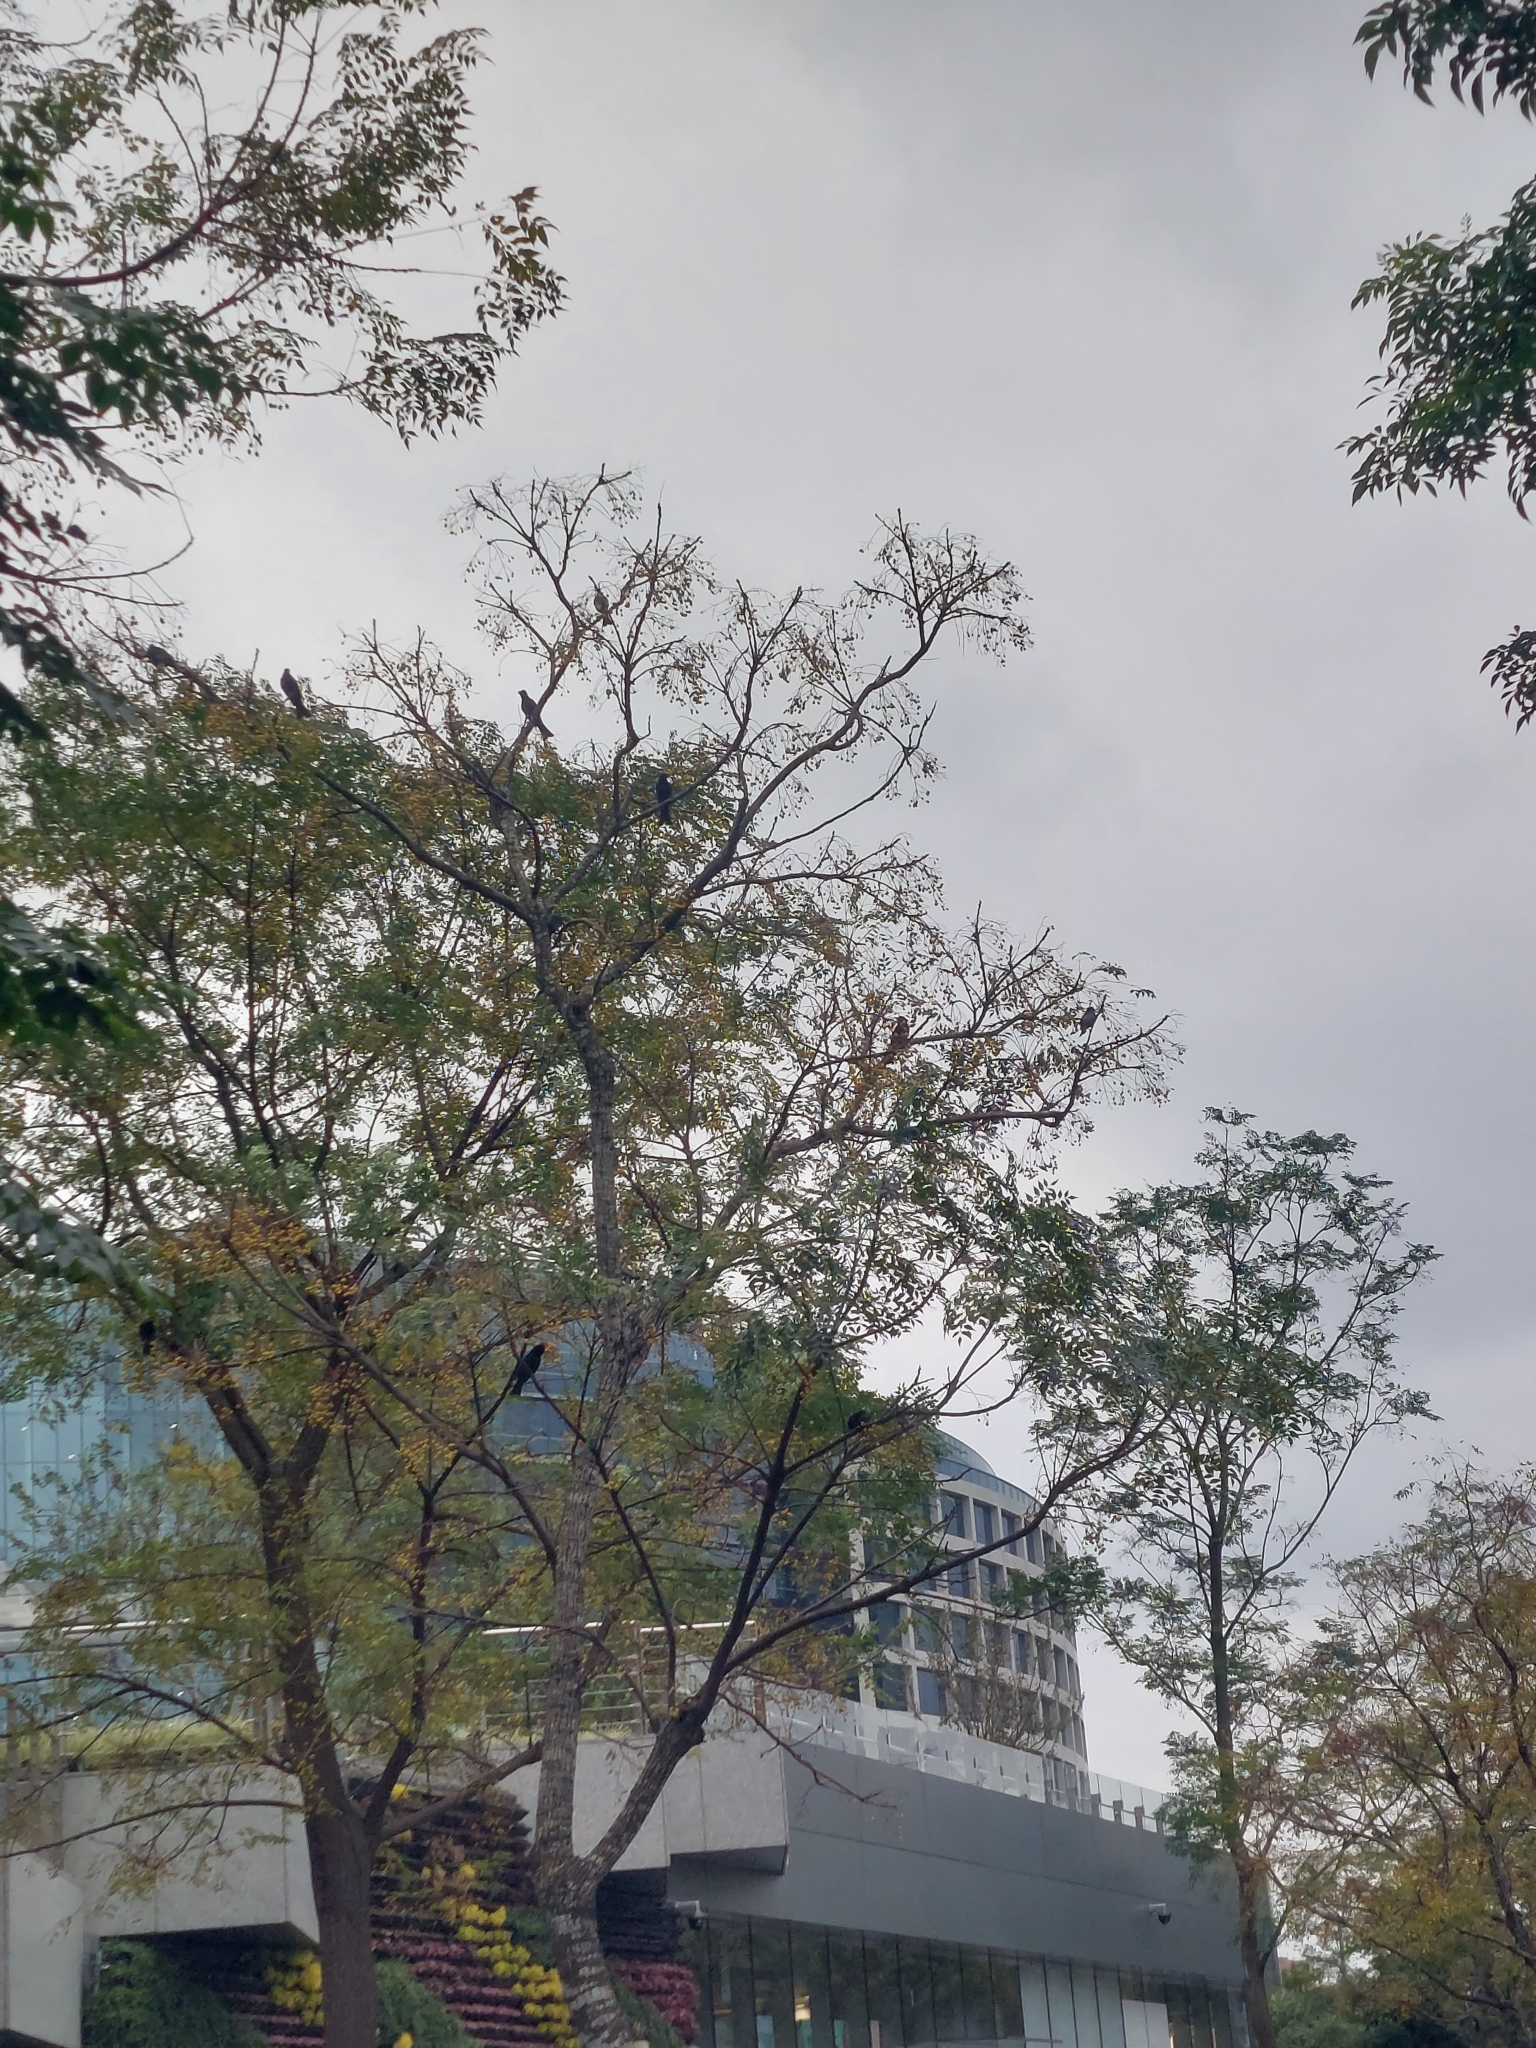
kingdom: Animalia
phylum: Chordata
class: Aves
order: Passeriformes
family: Pycnonotidae
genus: Hypsipetes
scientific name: Hypsipetes leucocephalus
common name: Black bulbul
